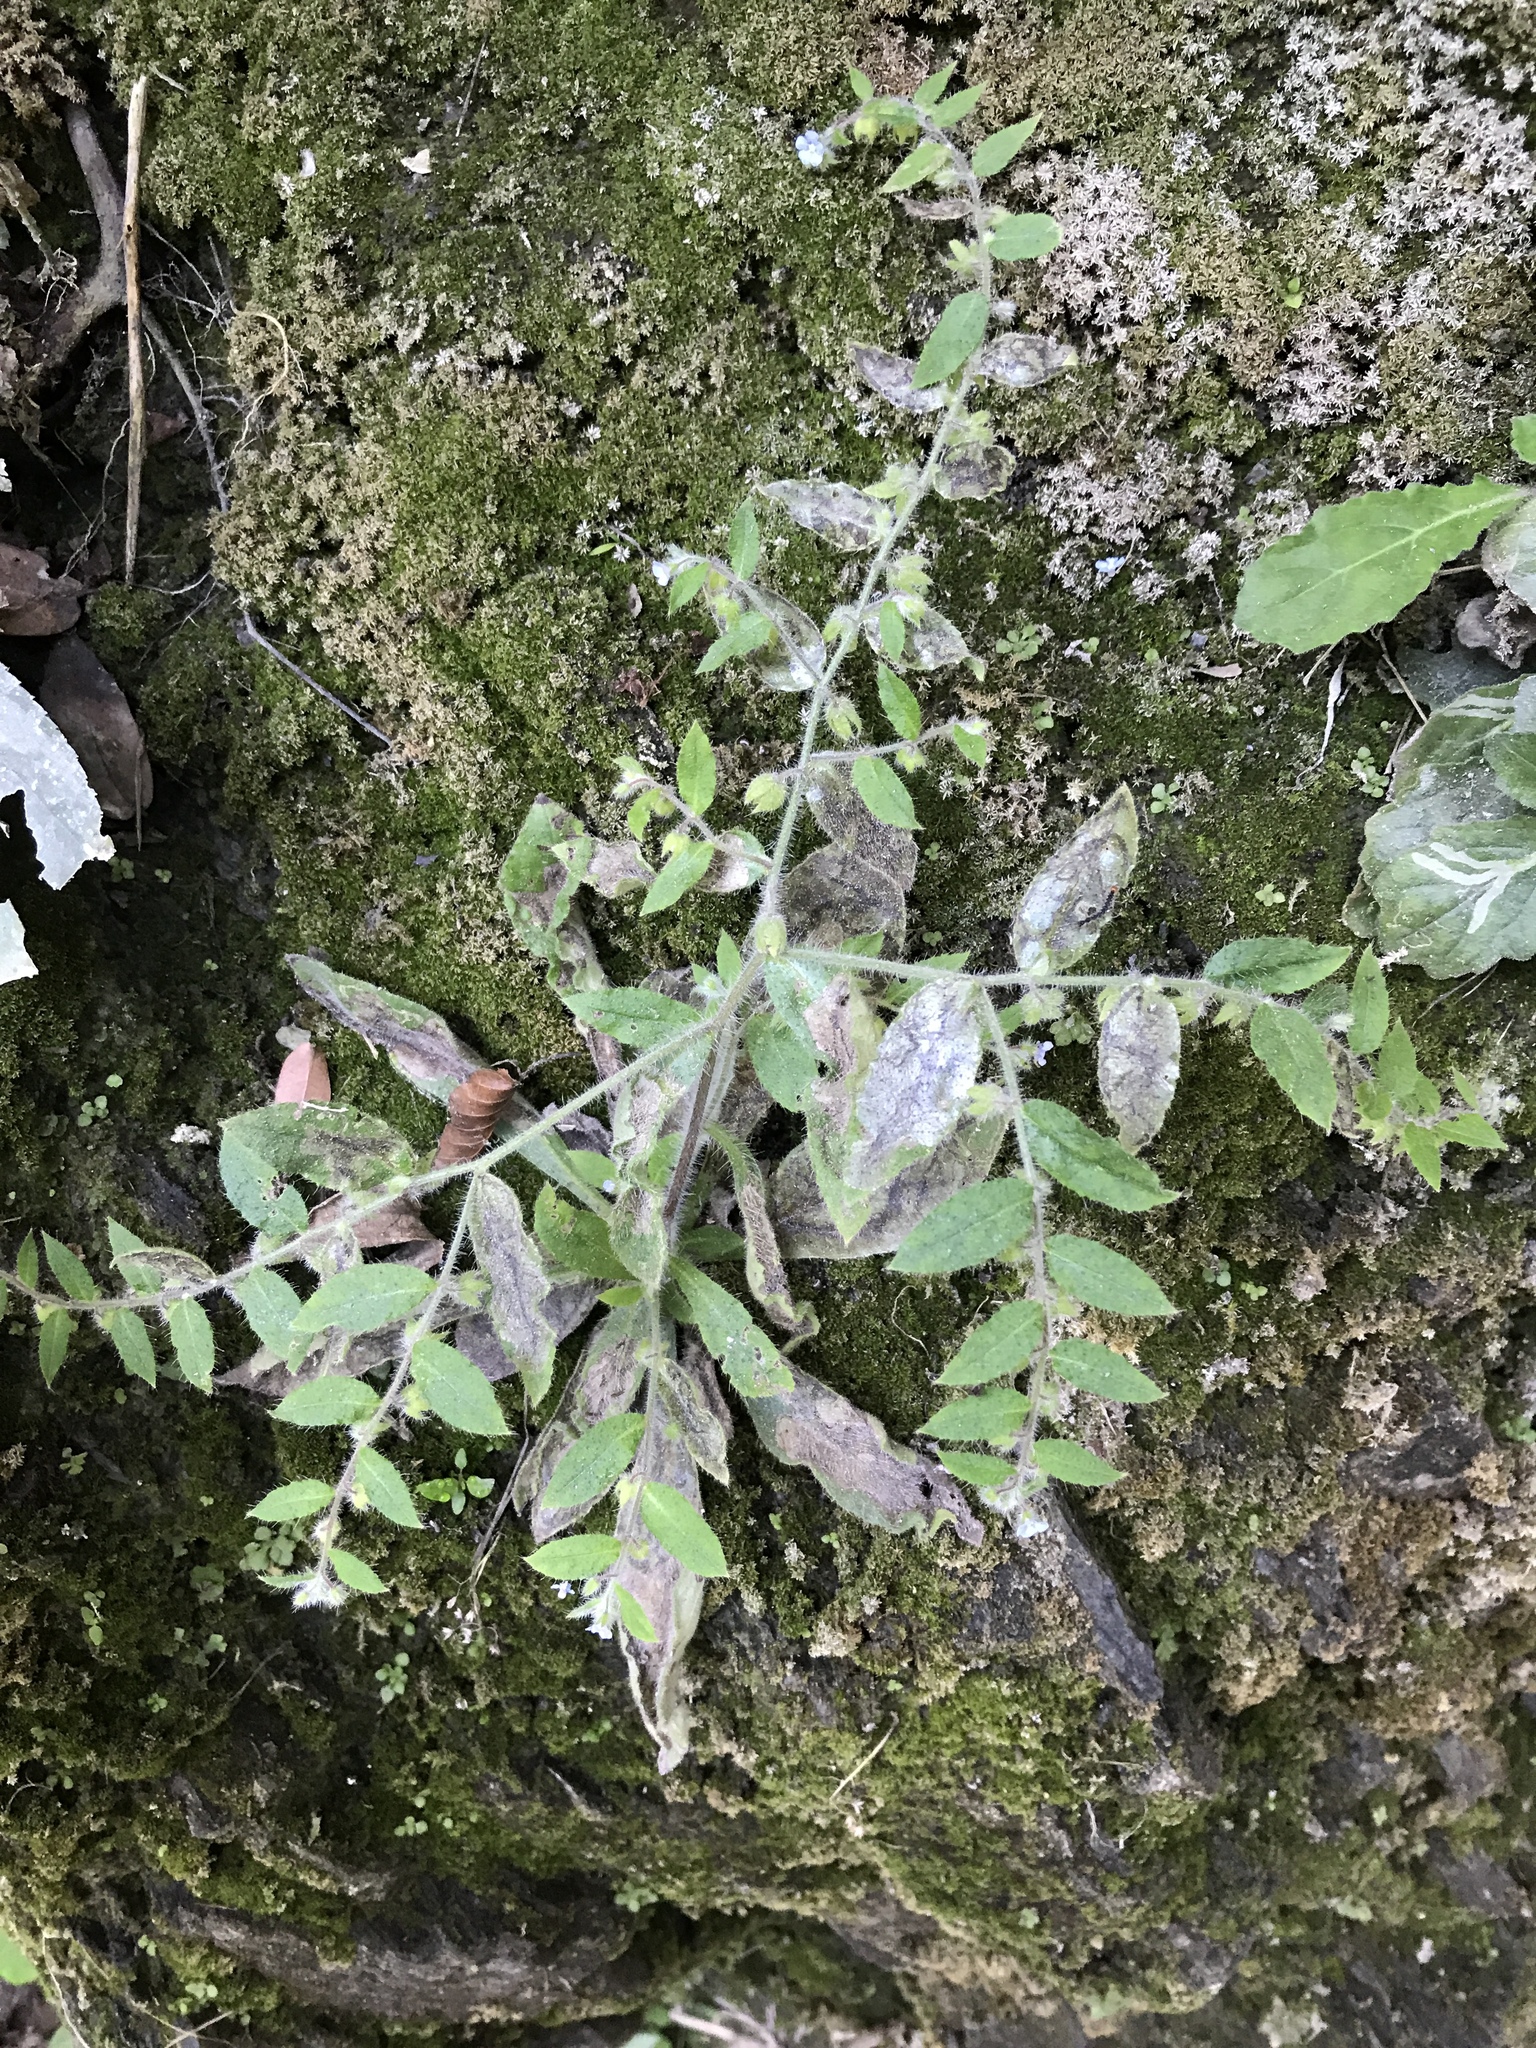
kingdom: Plantae
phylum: Tracheophyta
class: Magnoliopsida
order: Boraginales
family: Boraginaceae
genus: Bothriospermum
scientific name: Bothriospermum zeylanicum
